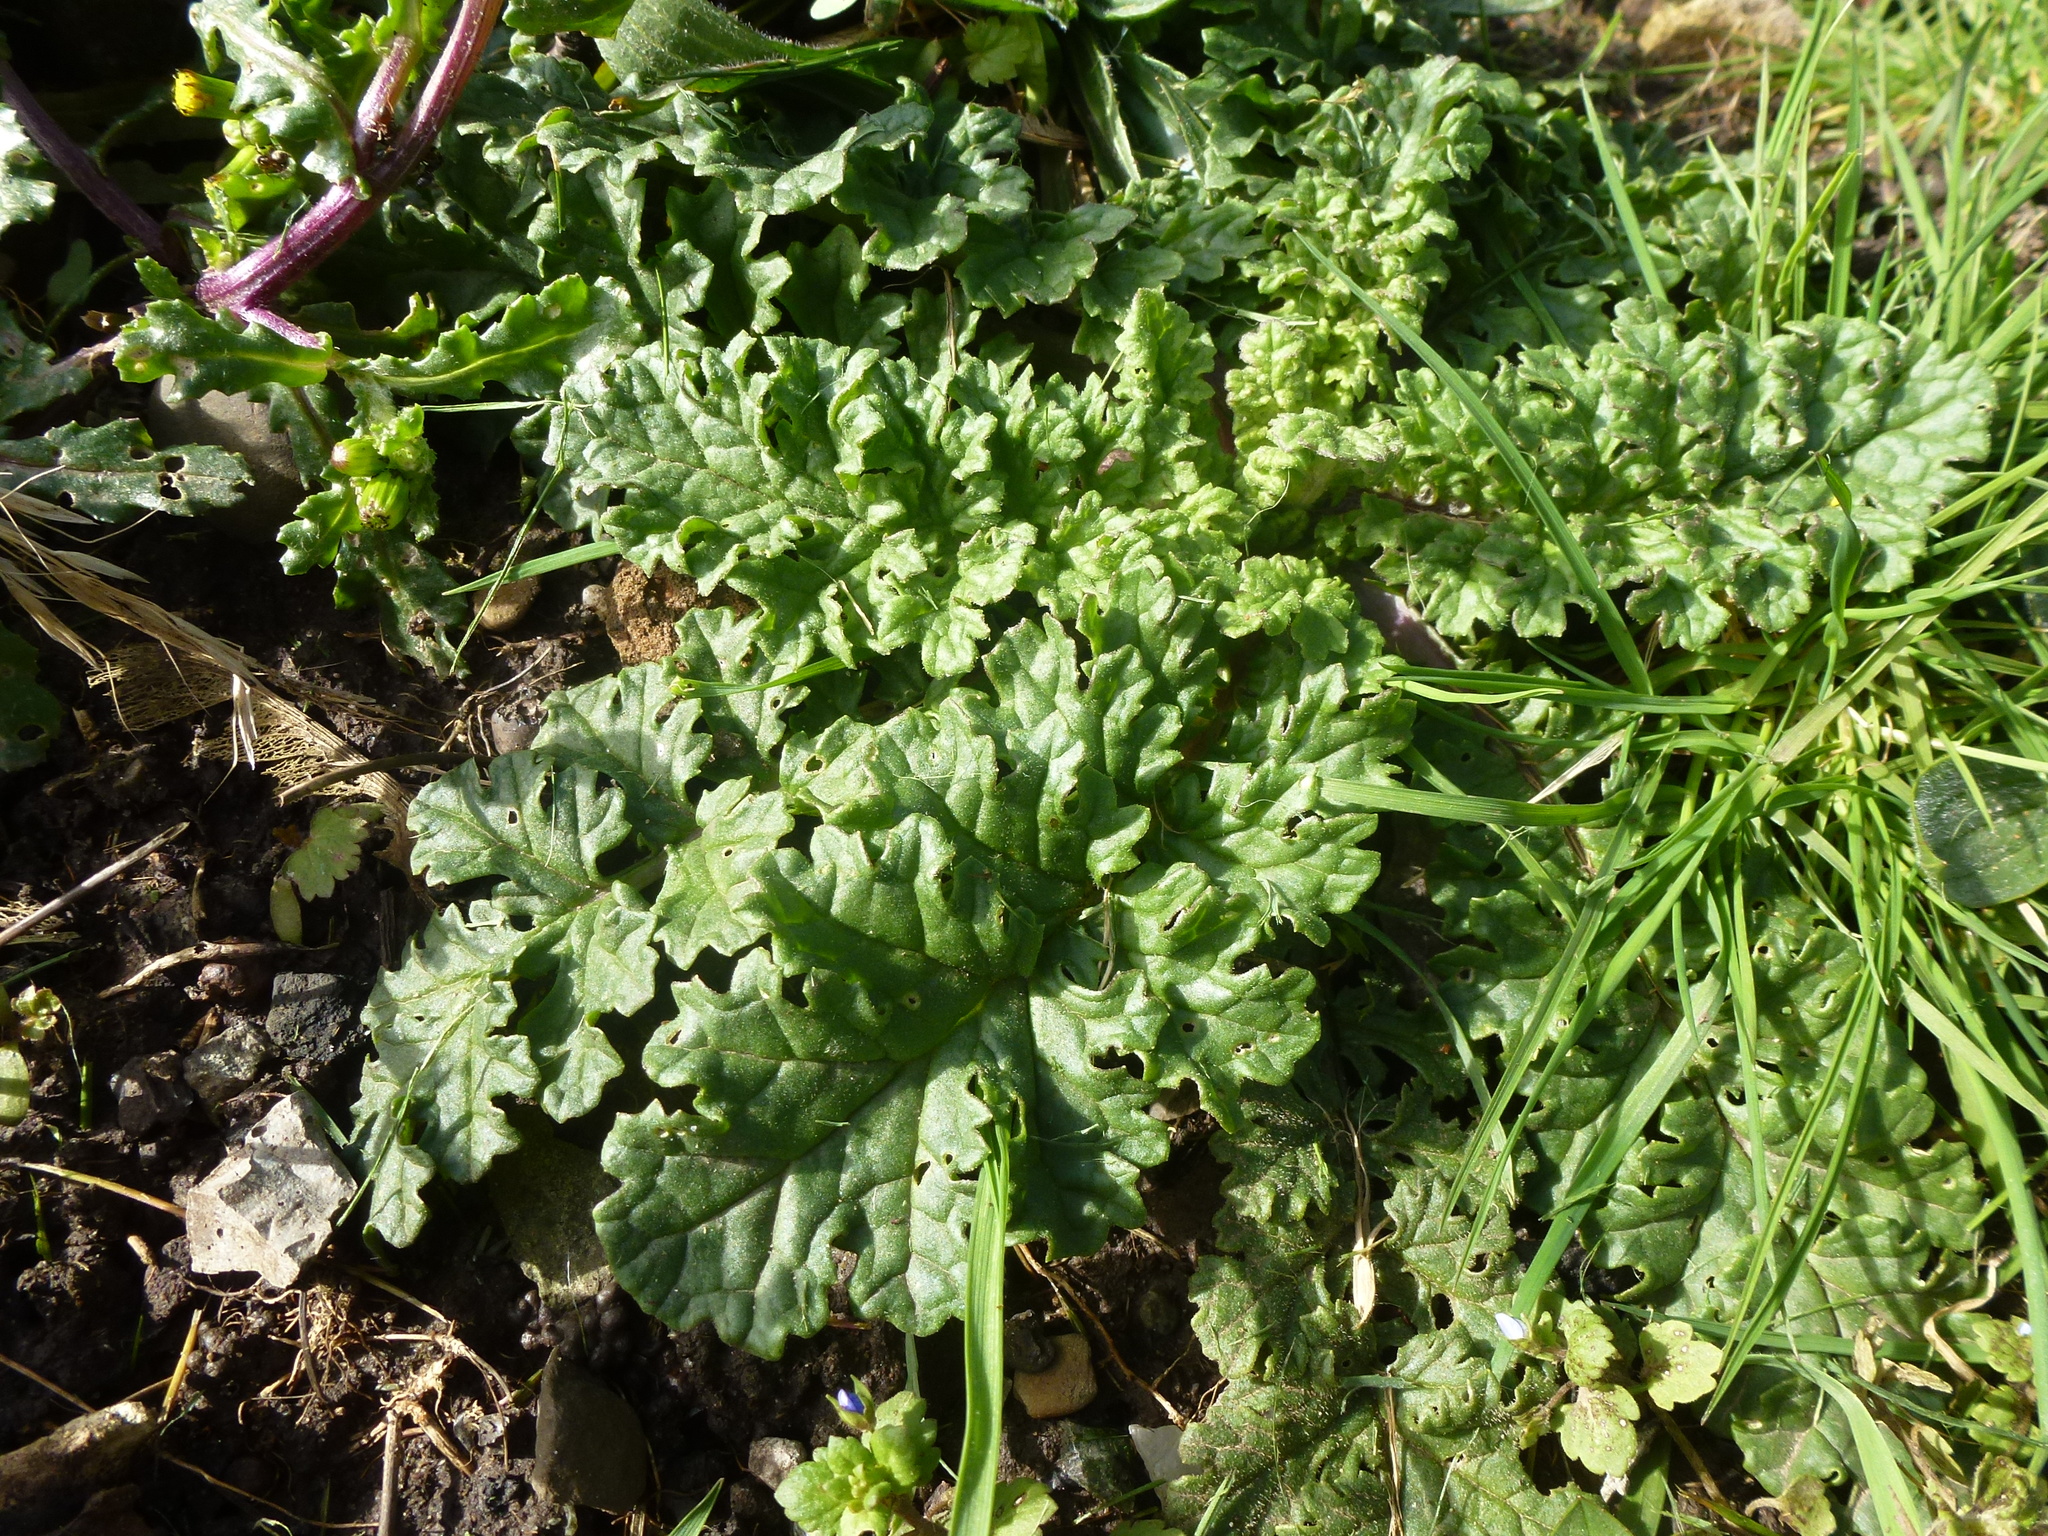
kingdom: Plantae
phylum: Tracheophyta
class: Magnoliopsida
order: Asterales
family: Asteraceae
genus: Jacobaea
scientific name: Jacobaea vulgaris
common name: Stinking willie
